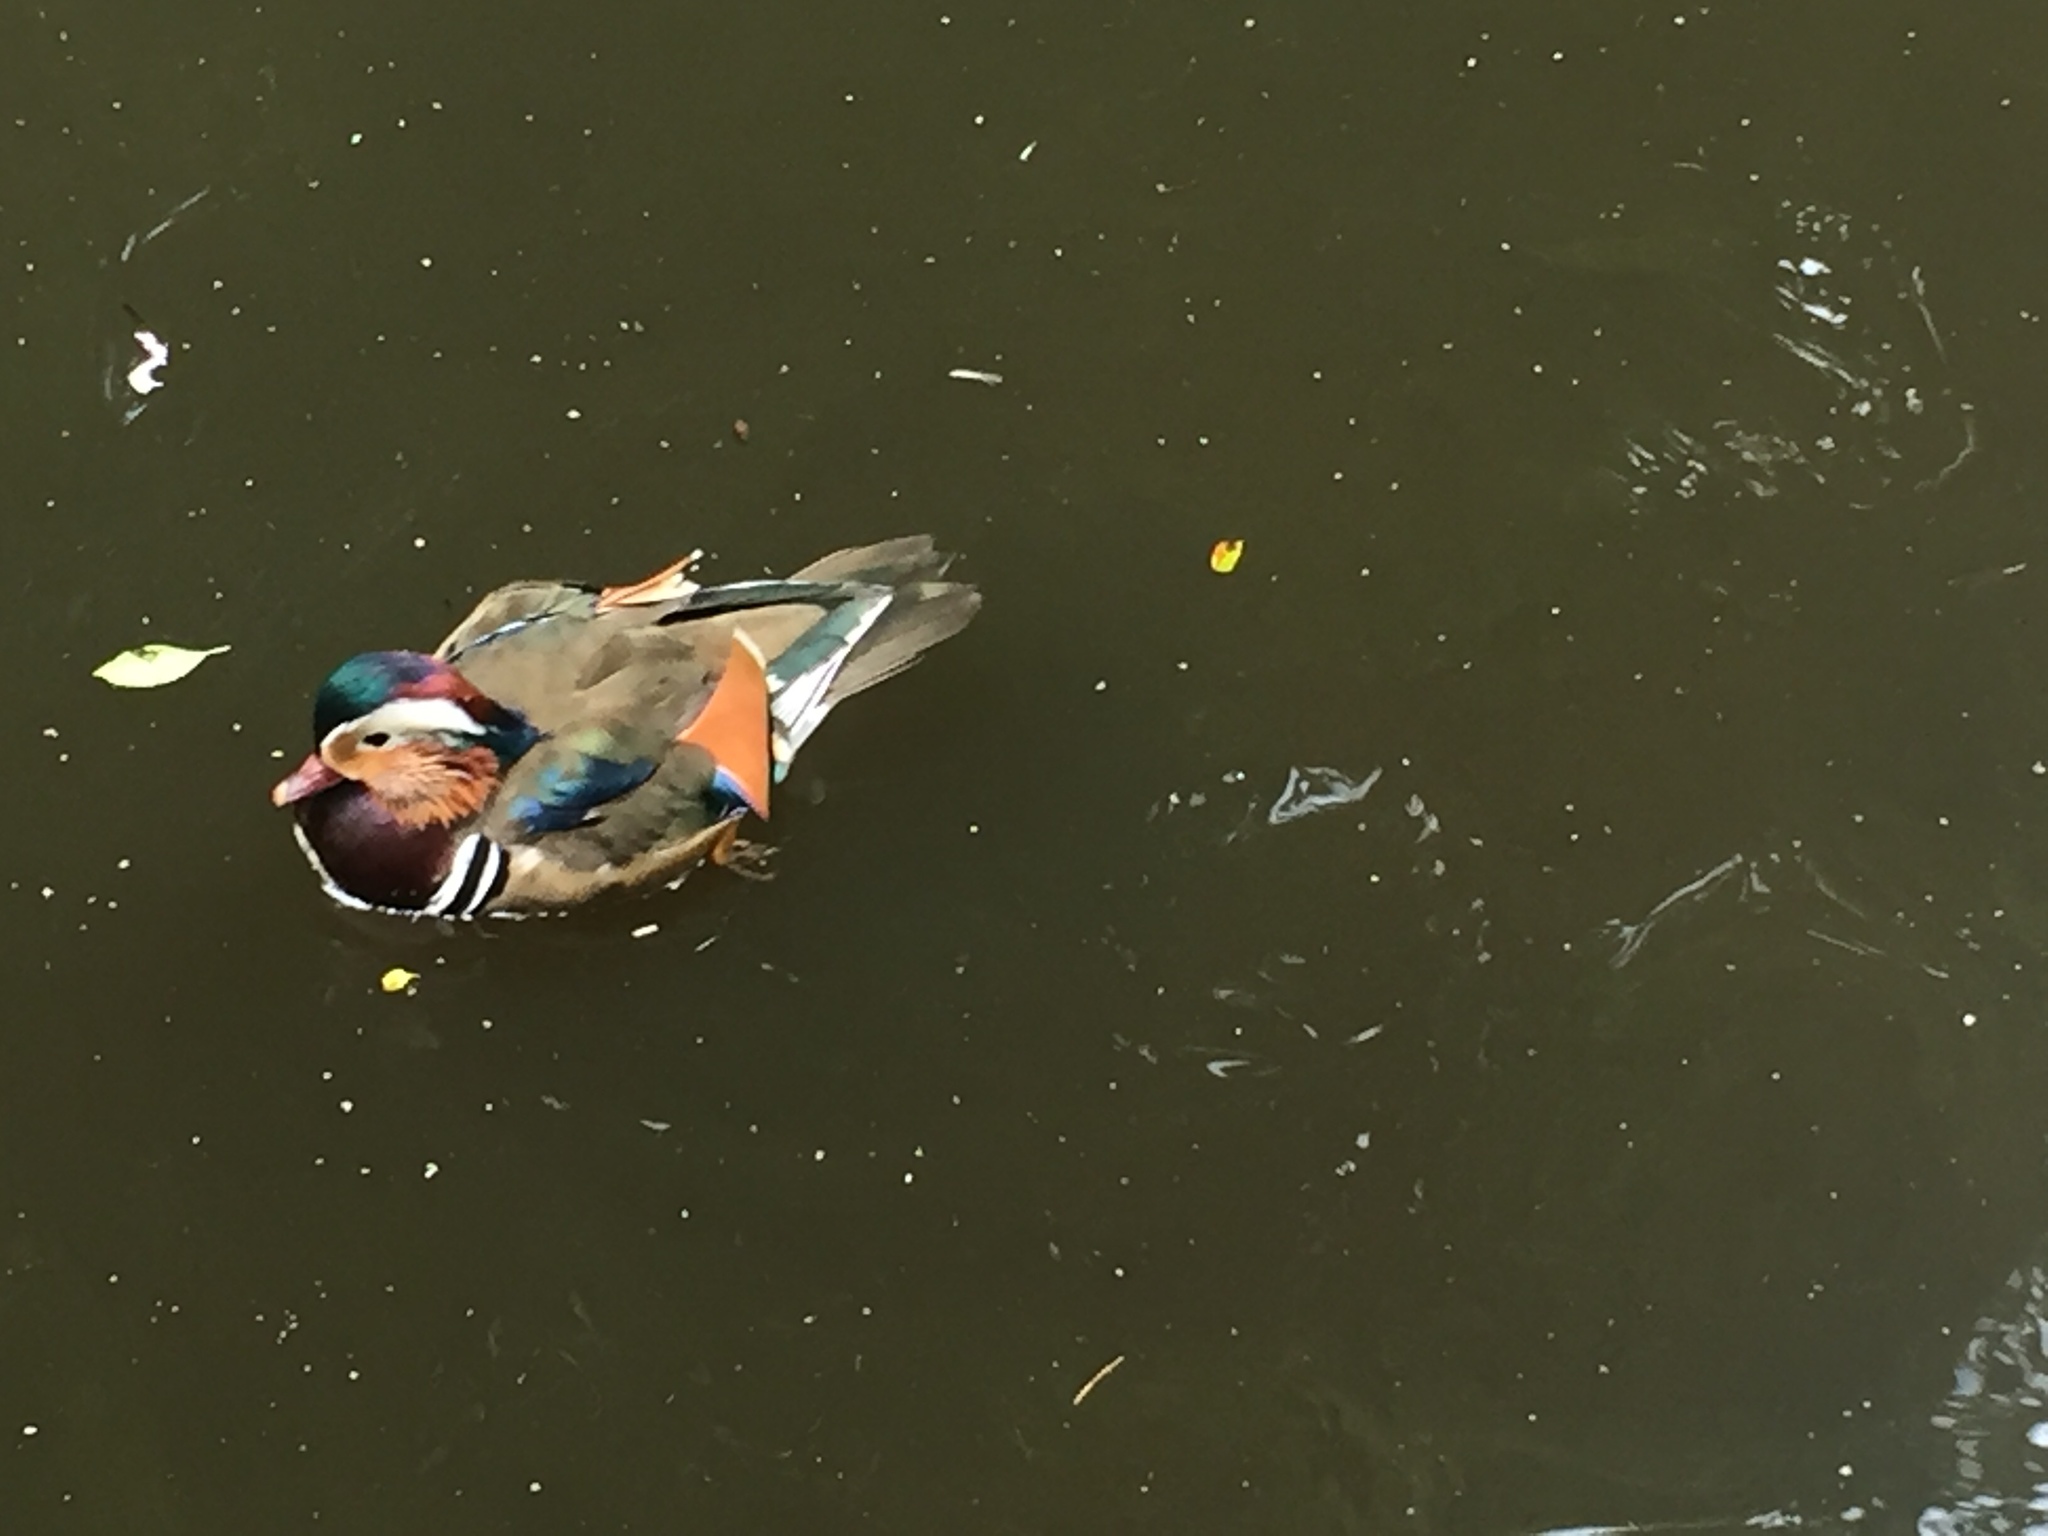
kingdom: Animalia
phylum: Chordata
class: Aves
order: Anseriformes
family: Anatidae
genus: Aix
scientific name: Aix galericulata
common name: Mandarin duck
